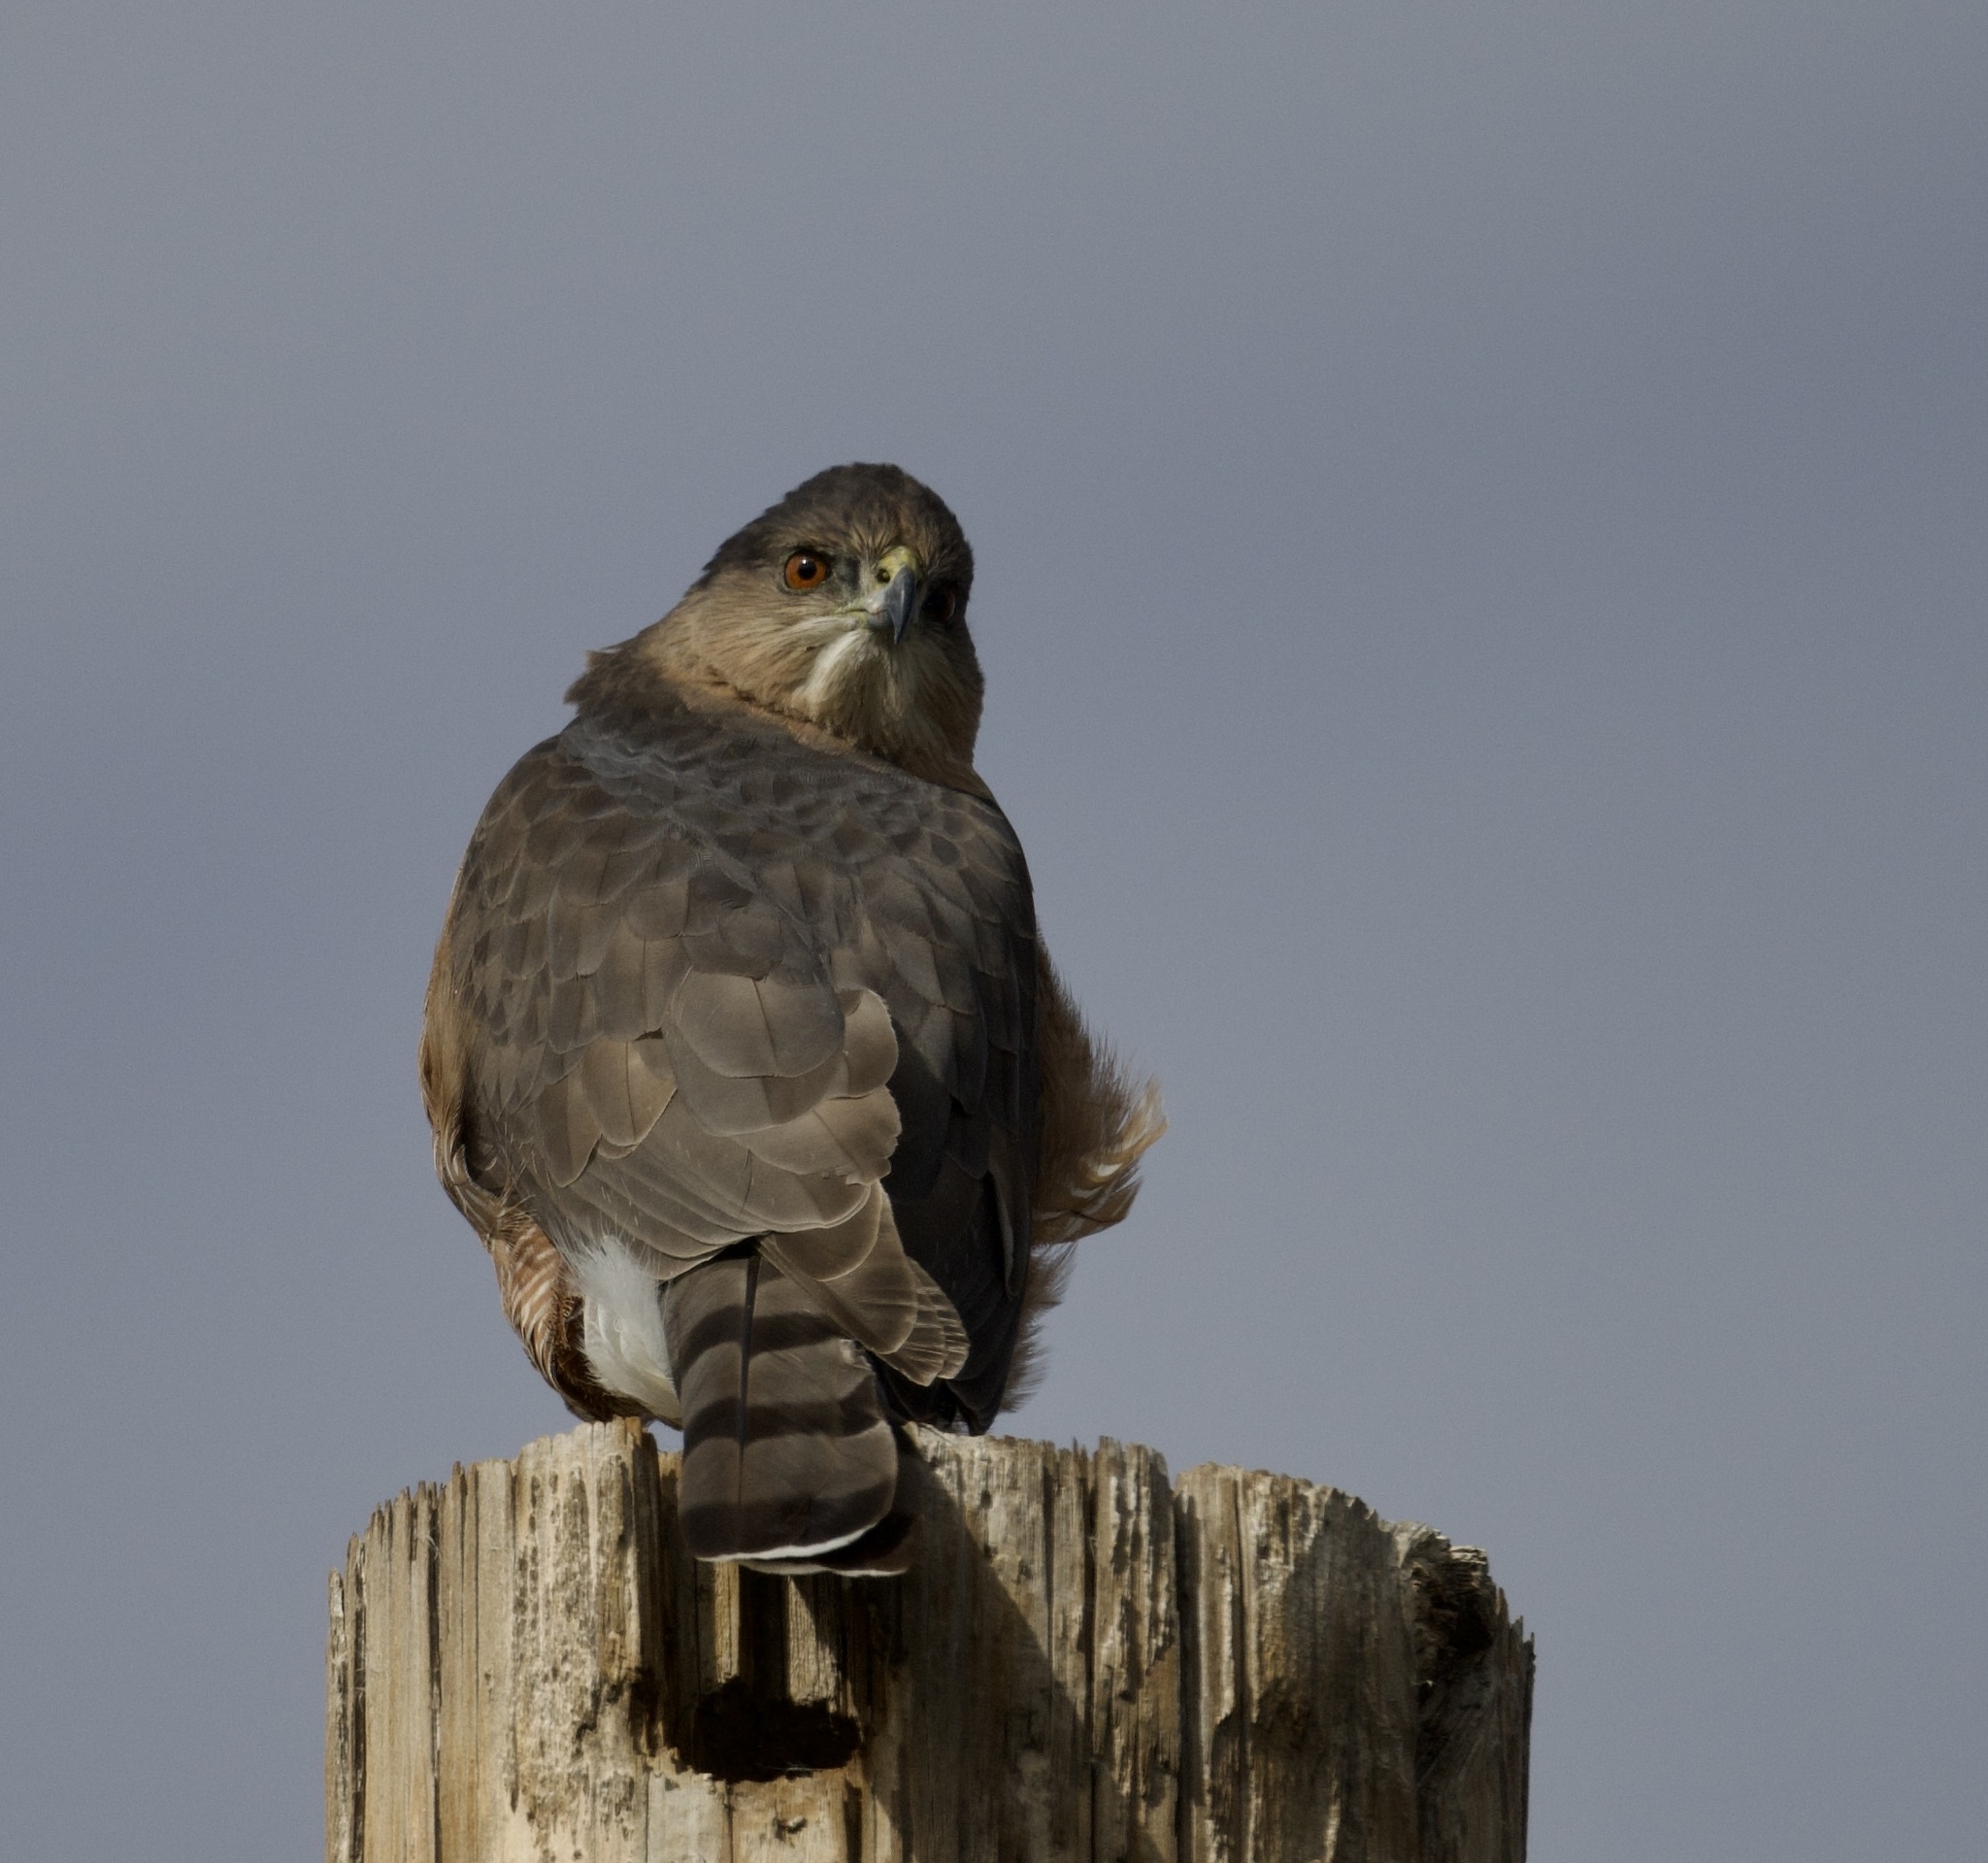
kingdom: Animalia
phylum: Chordata
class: Aves
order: Accipitriformes
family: Accipitridae
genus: Accipiter
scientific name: Accipiter cooperii
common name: Cooper's hawk
